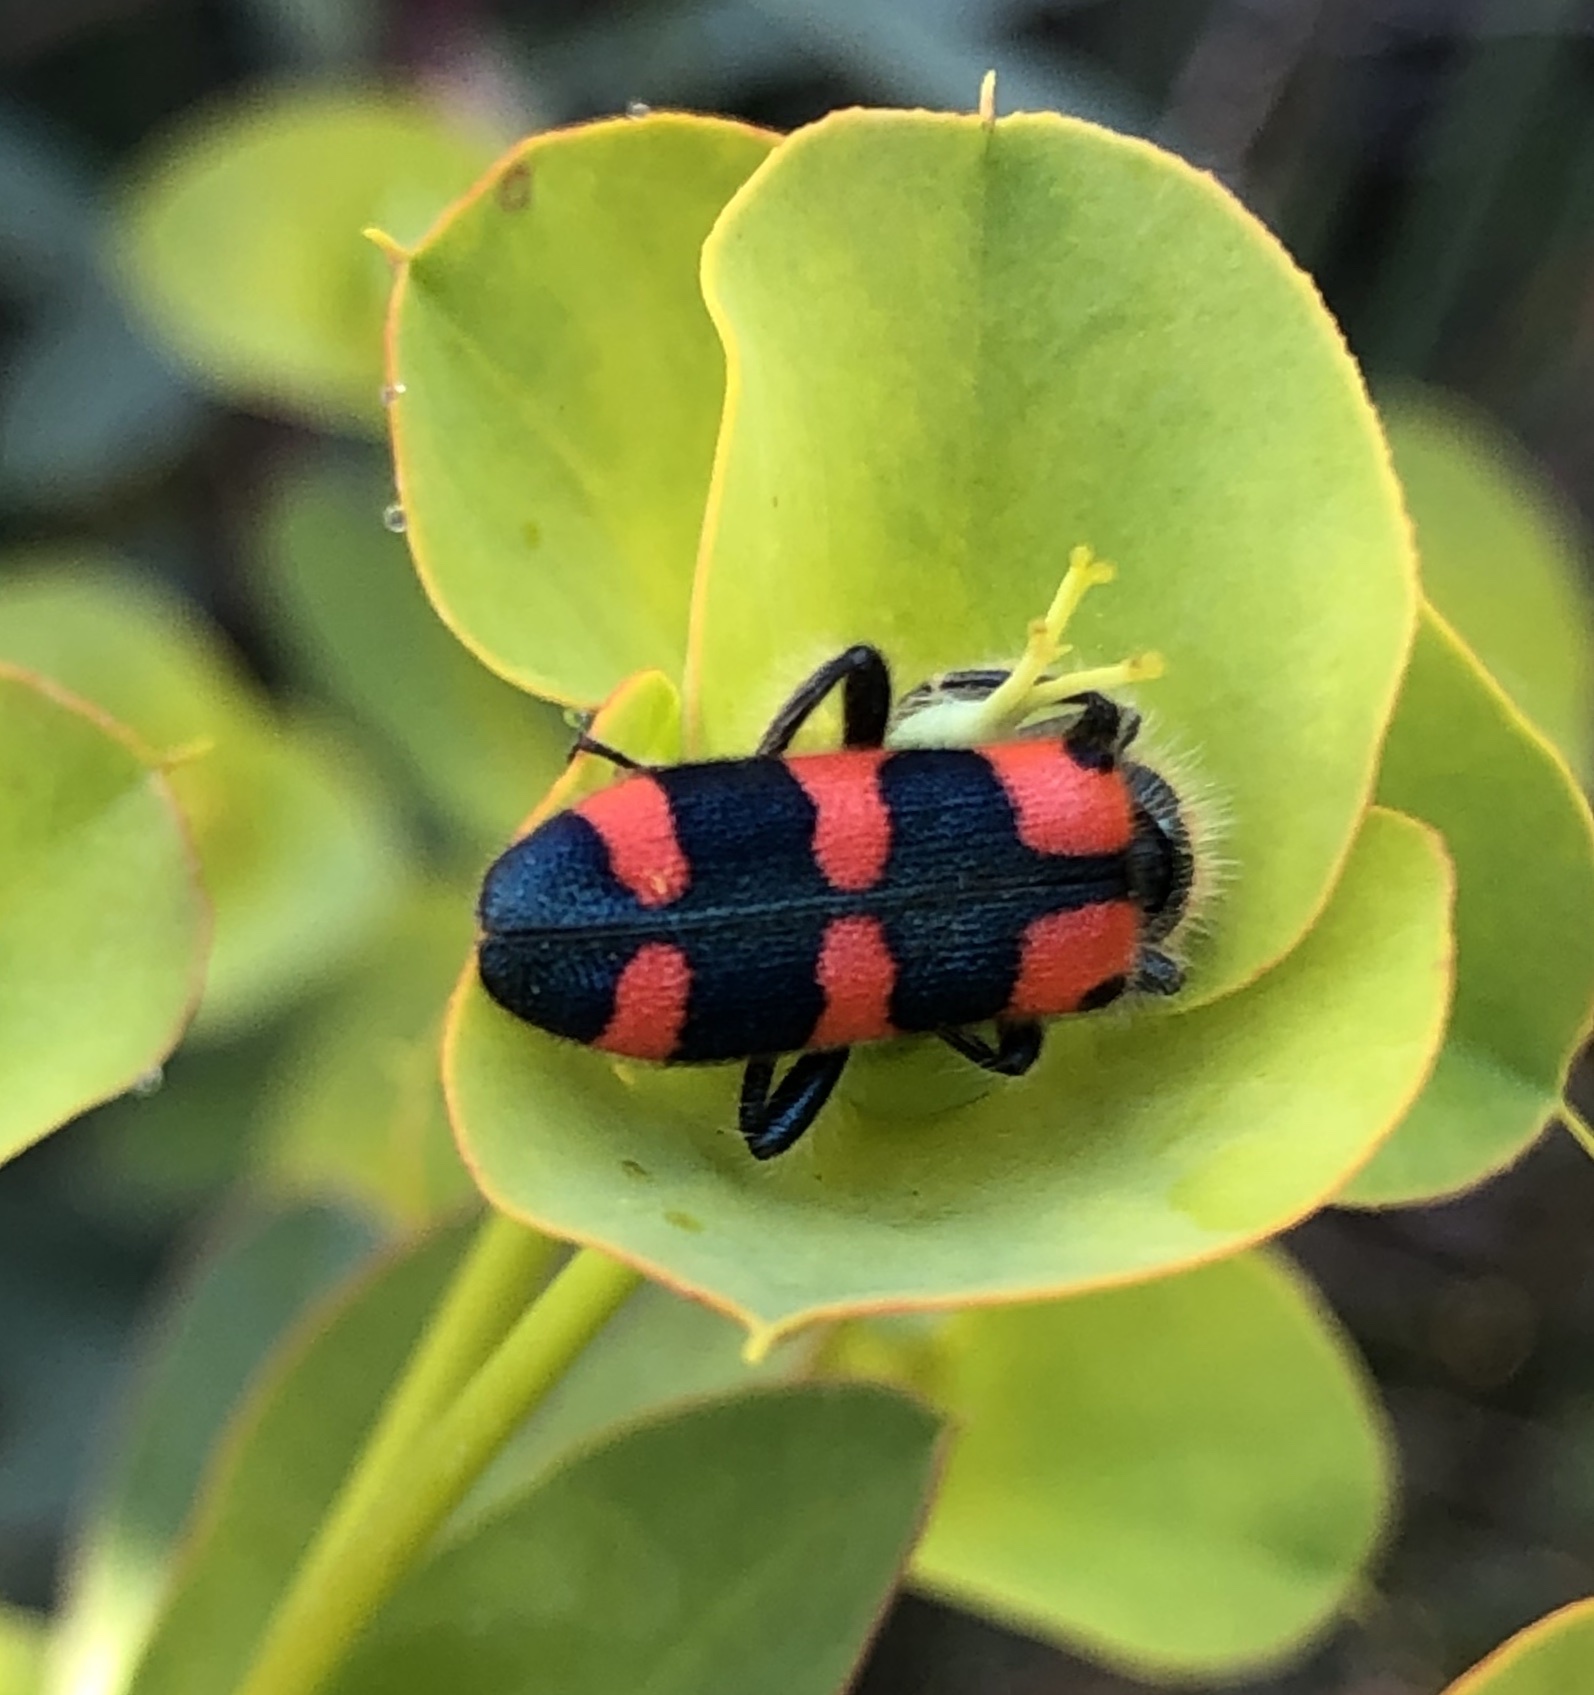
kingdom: Animalia
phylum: Arthropoda
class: Insecta
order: Coleoptera
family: Cleridae
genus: Trichodes
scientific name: Trichodes leucopsideus
